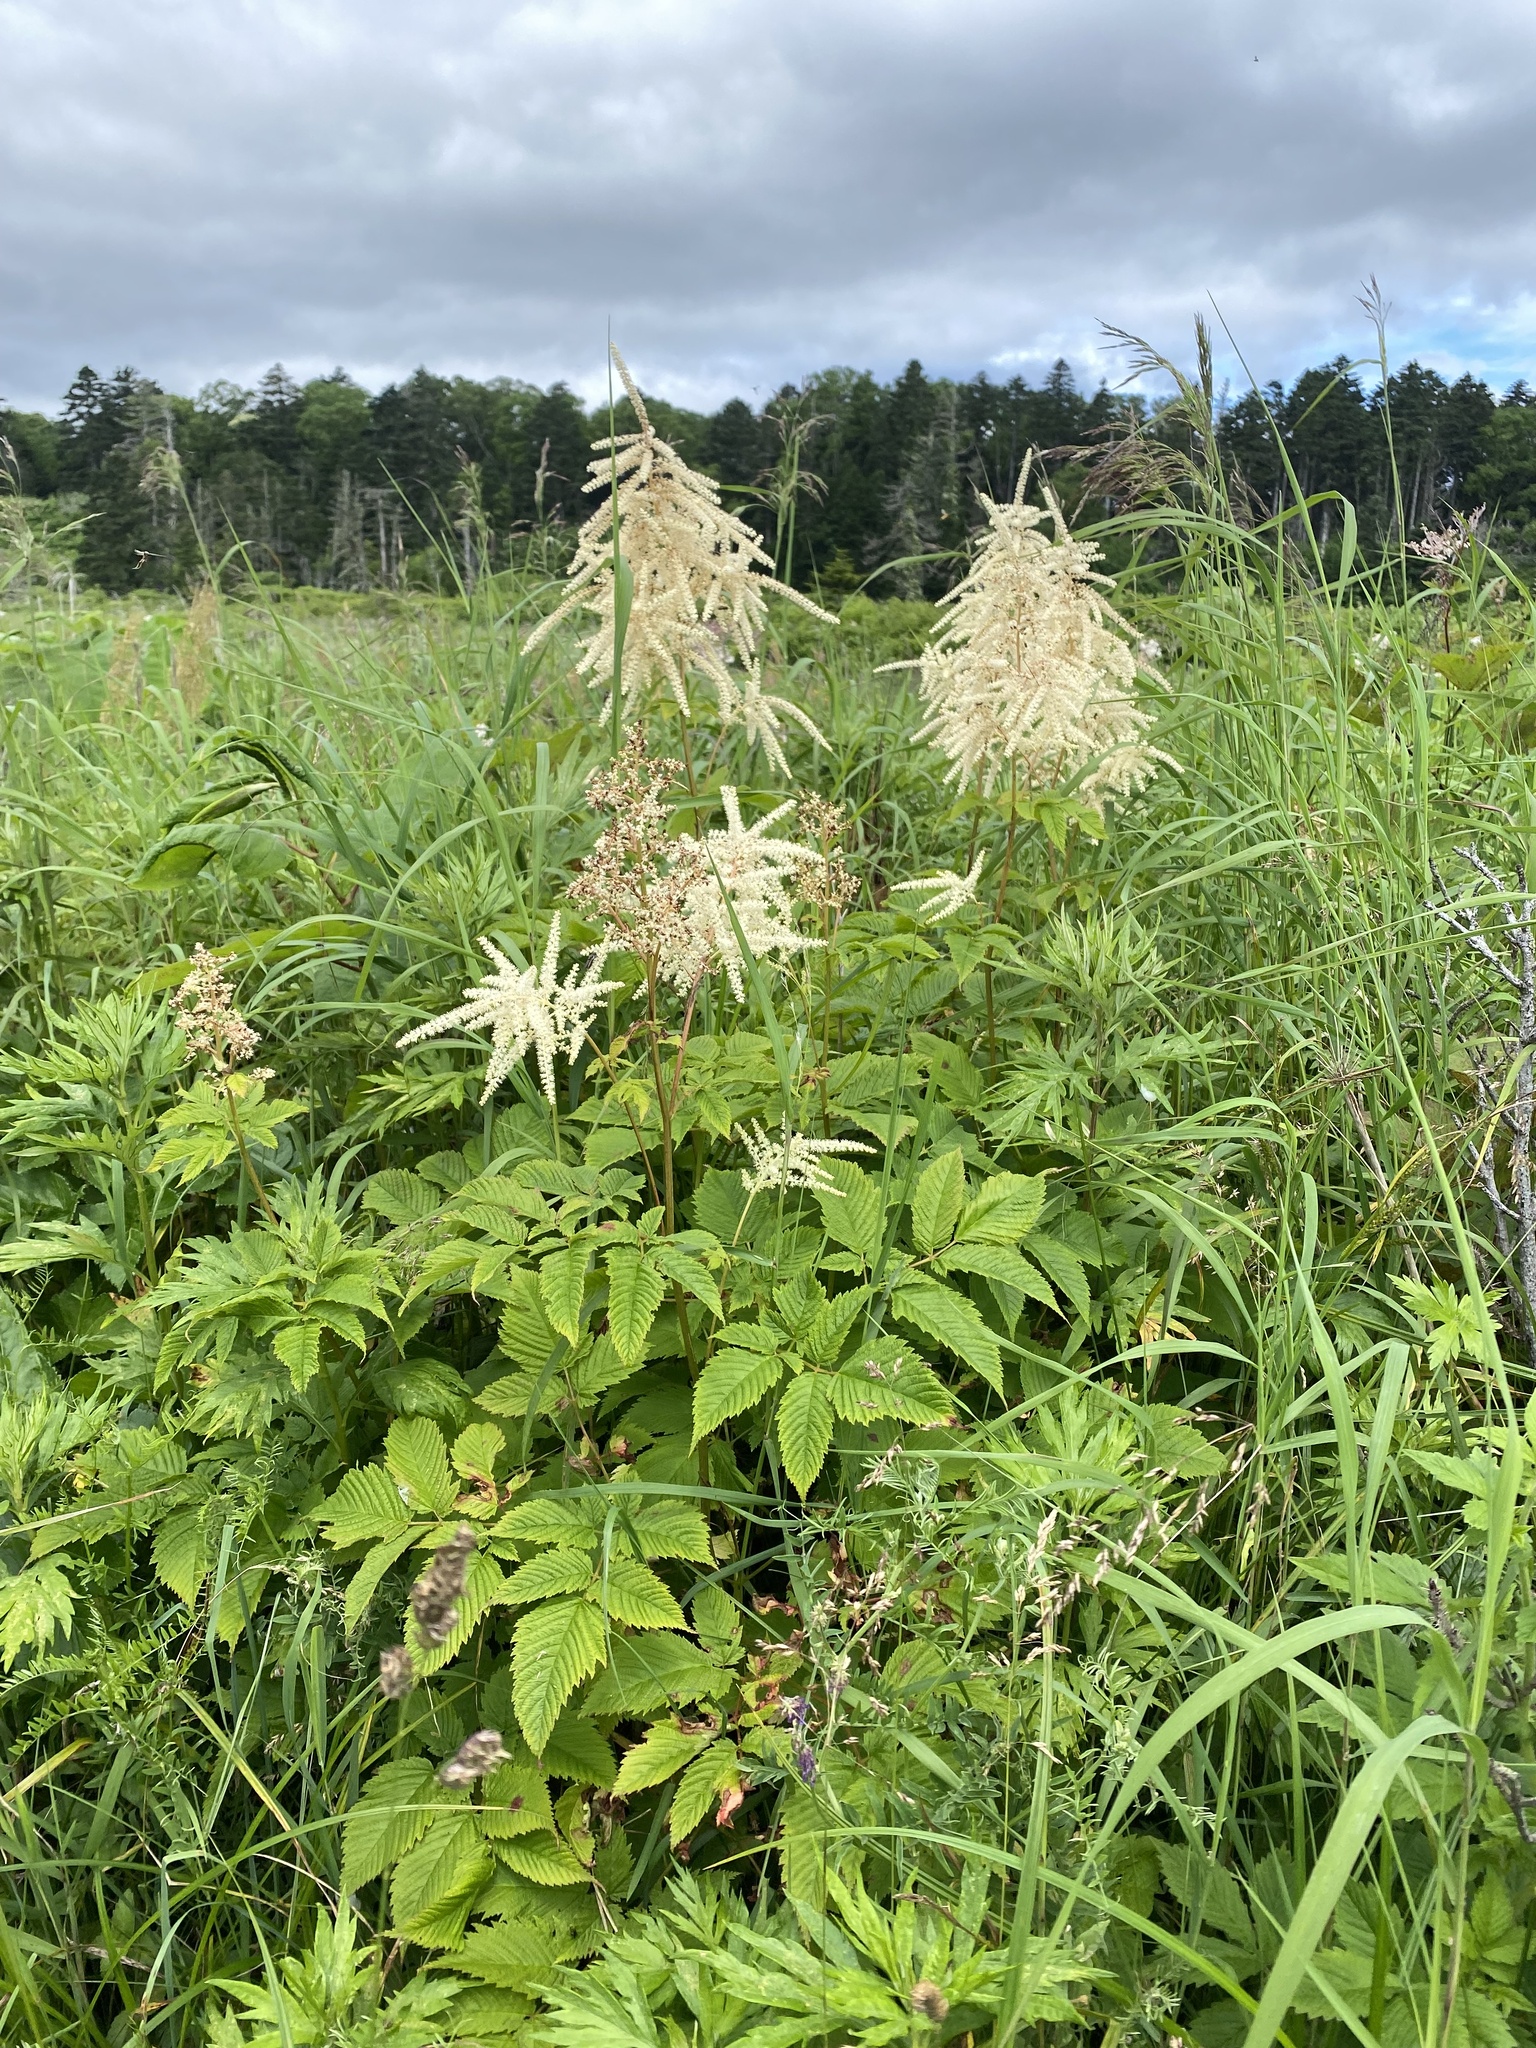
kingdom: Plantae
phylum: Tracheophyta
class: Magnoliopsida
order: Rosales
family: Rosaceae
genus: Aruncus
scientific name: Aruncus dioicus
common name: Buck's-beard
